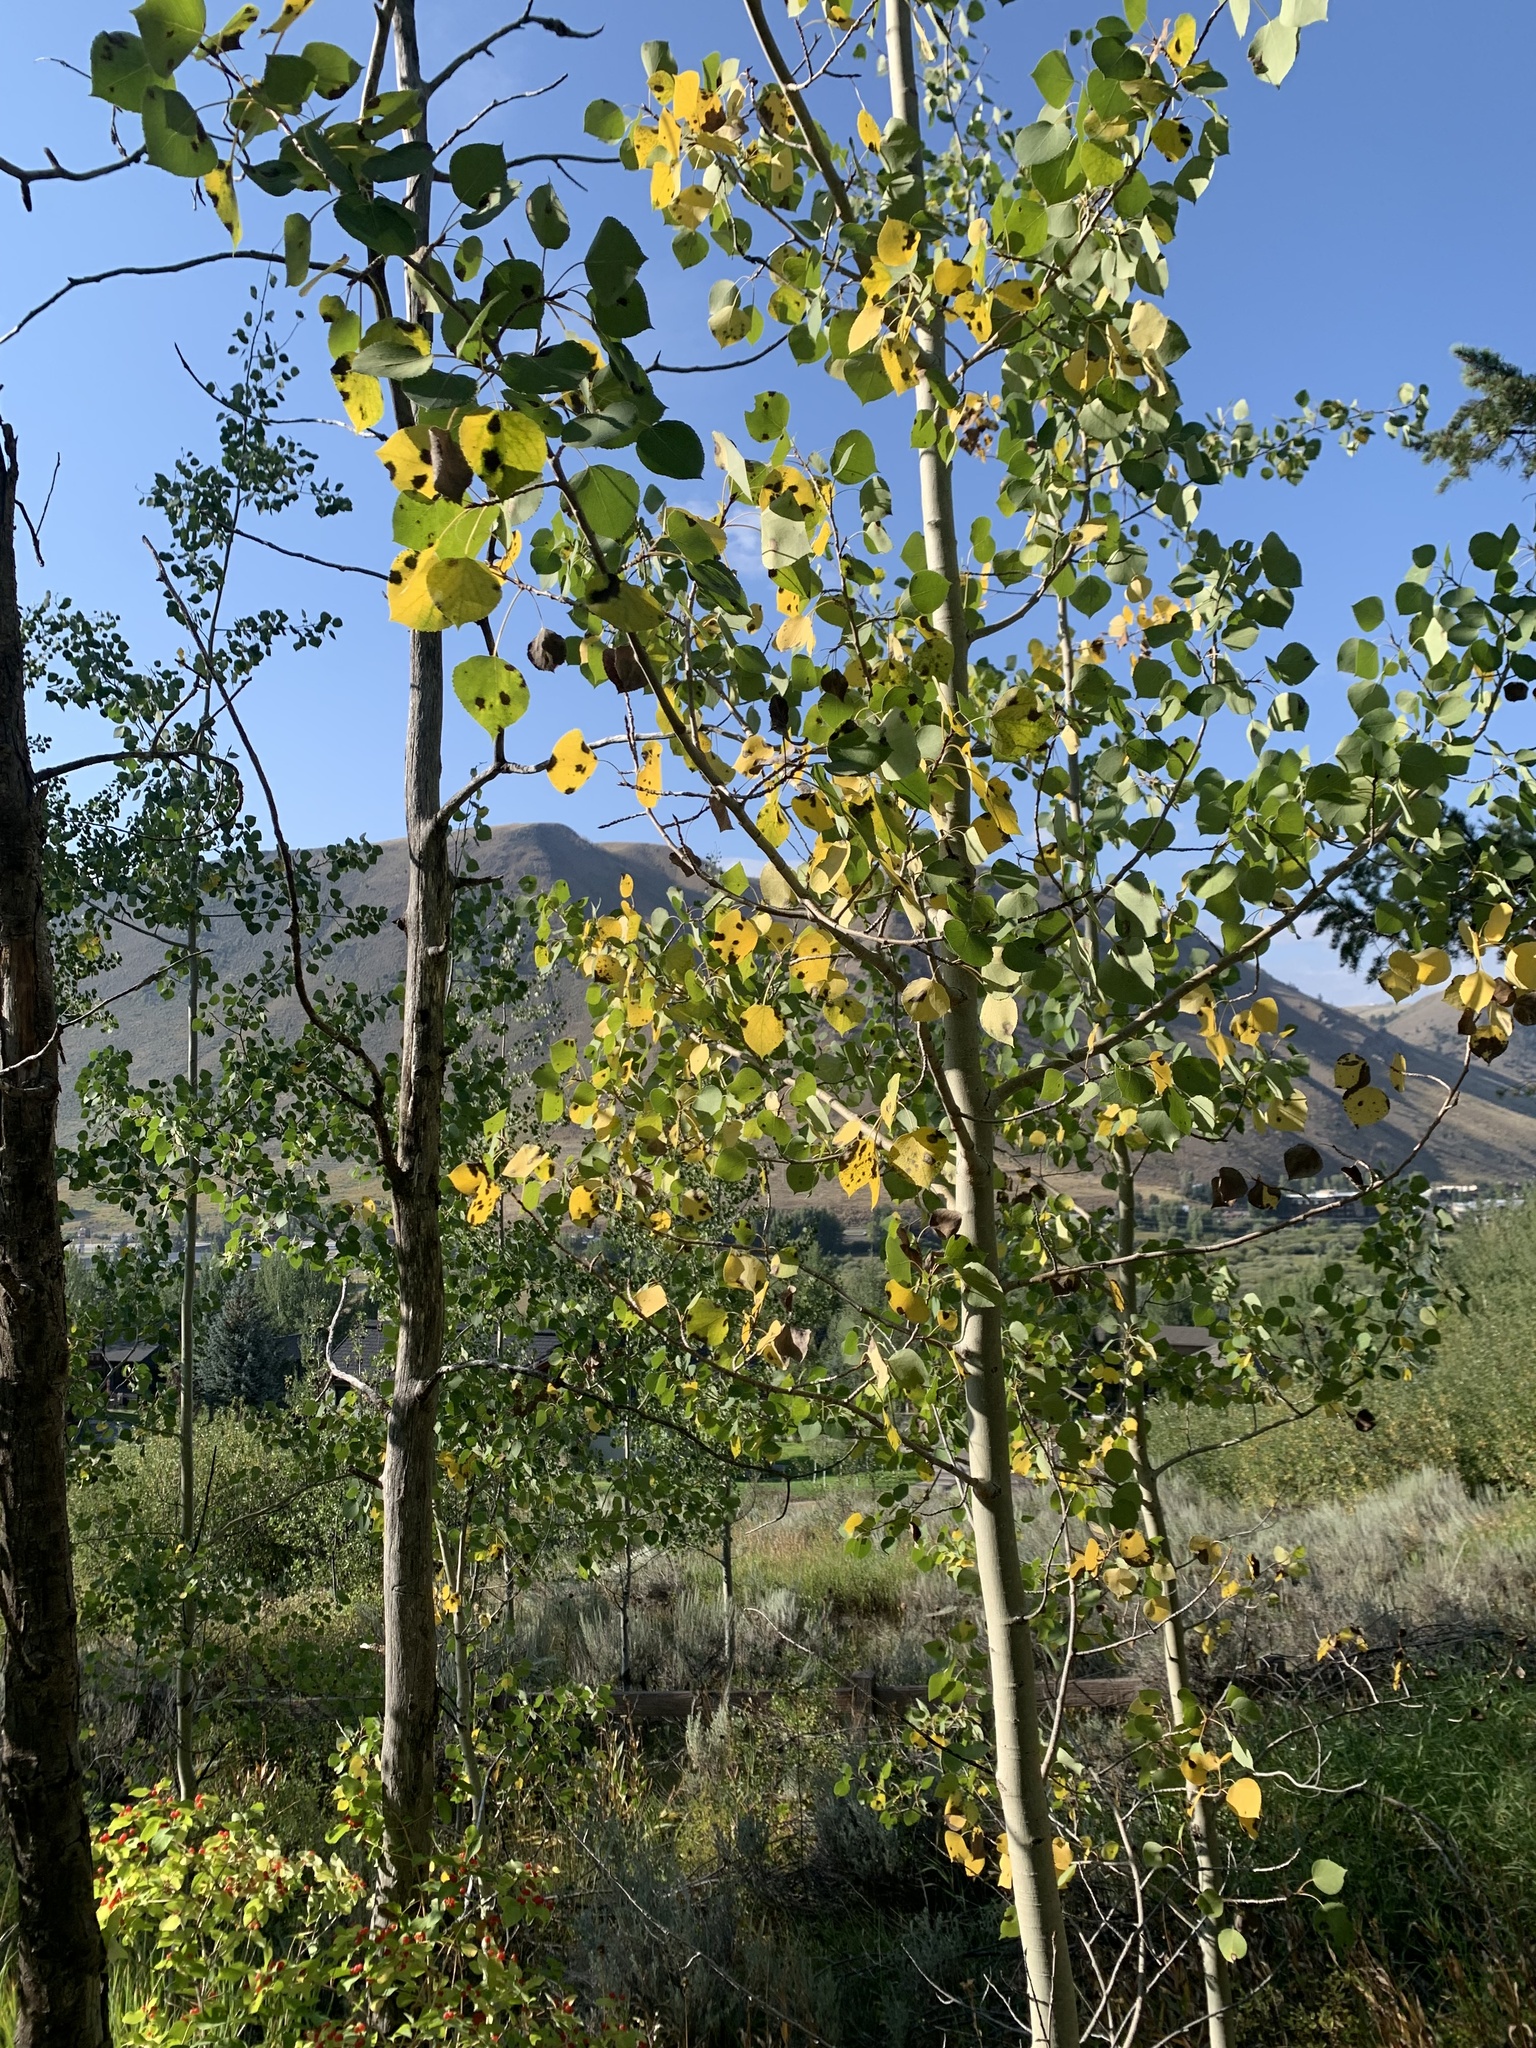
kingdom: Plantae
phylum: Tracheophyta
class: Magnoliopsida
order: Malpighiales
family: Salicaceae
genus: Populus
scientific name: Populus tremuloides
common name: Quaking aspen
